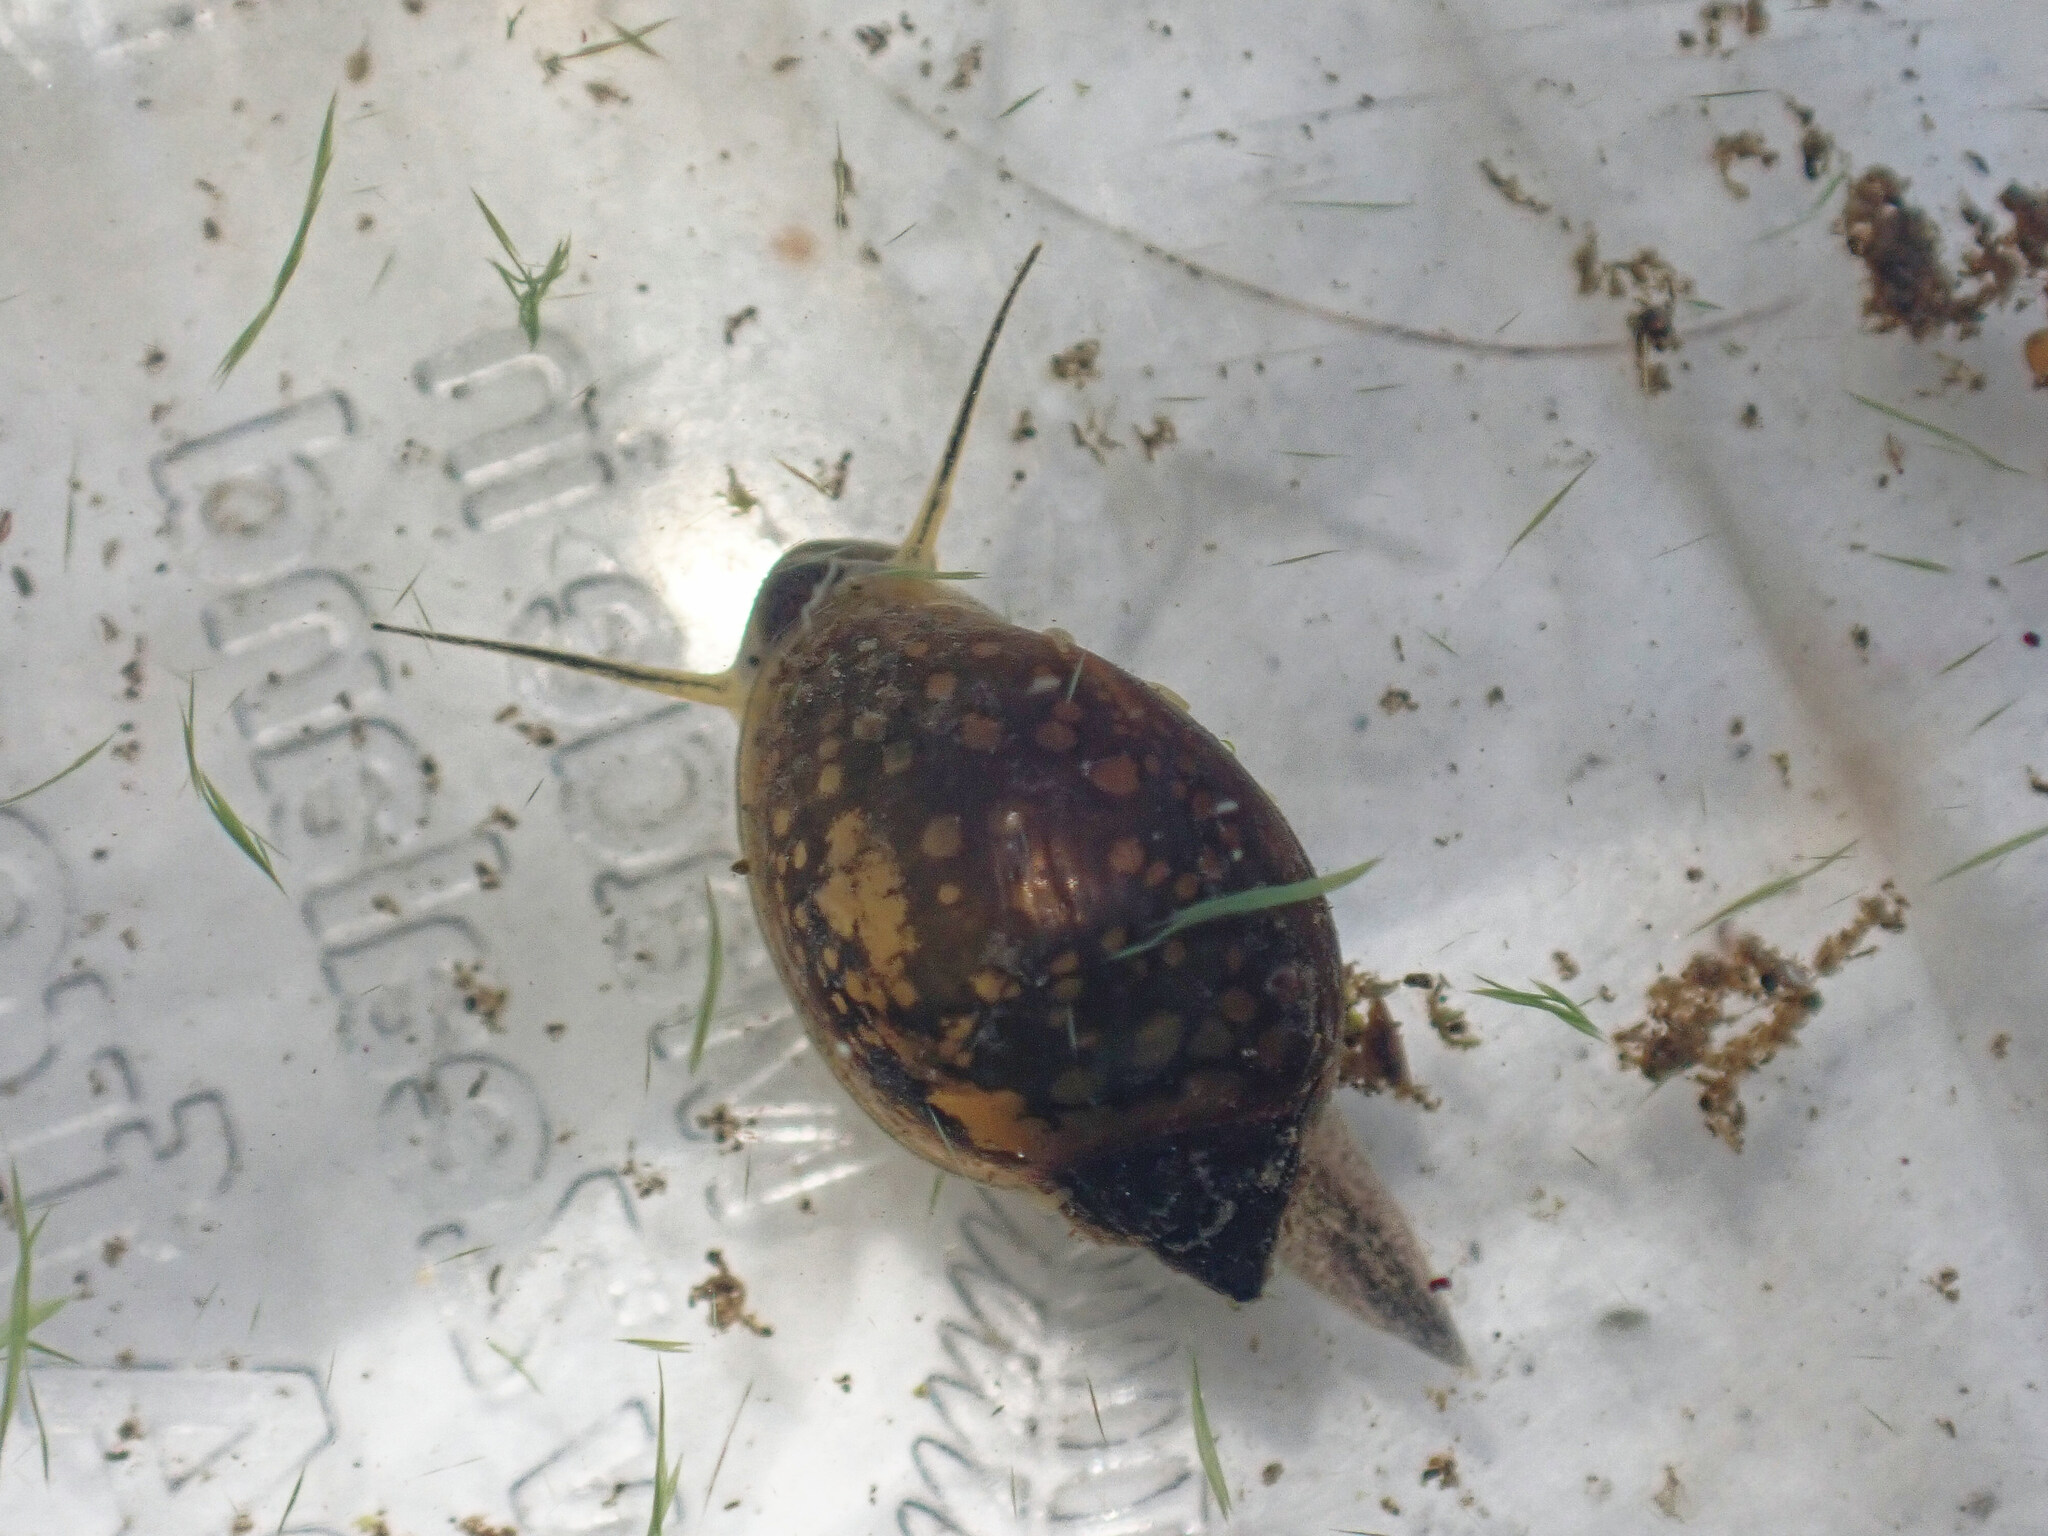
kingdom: Animalia
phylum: Mollusca
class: Gastropoda
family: Physidae
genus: Physella
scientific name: Physella acuta
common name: European physa
